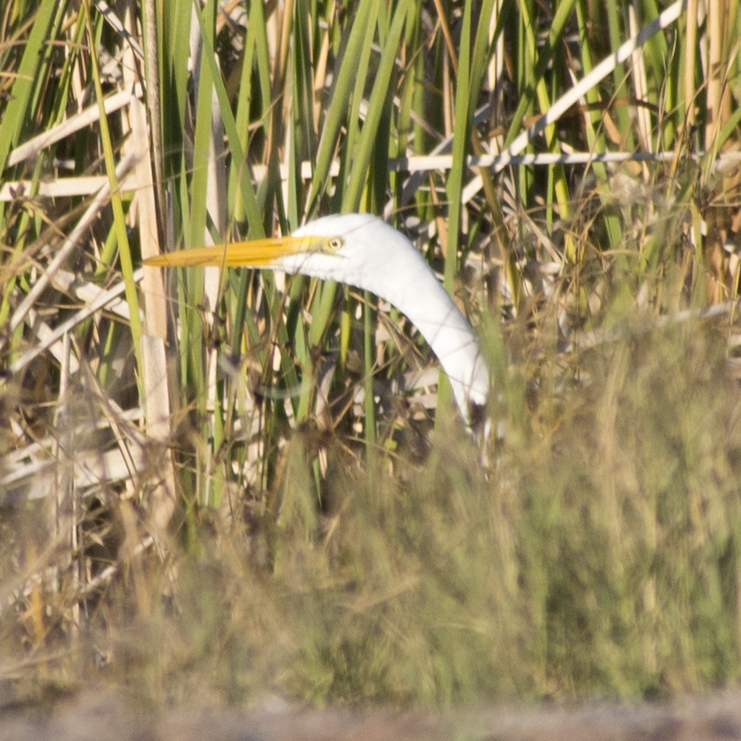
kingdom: Animalia
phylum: Chordata
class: Aves
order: Pelecaniformes
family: Ardeidae
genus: Ardea
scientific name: Ardea alba
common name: Great egret
